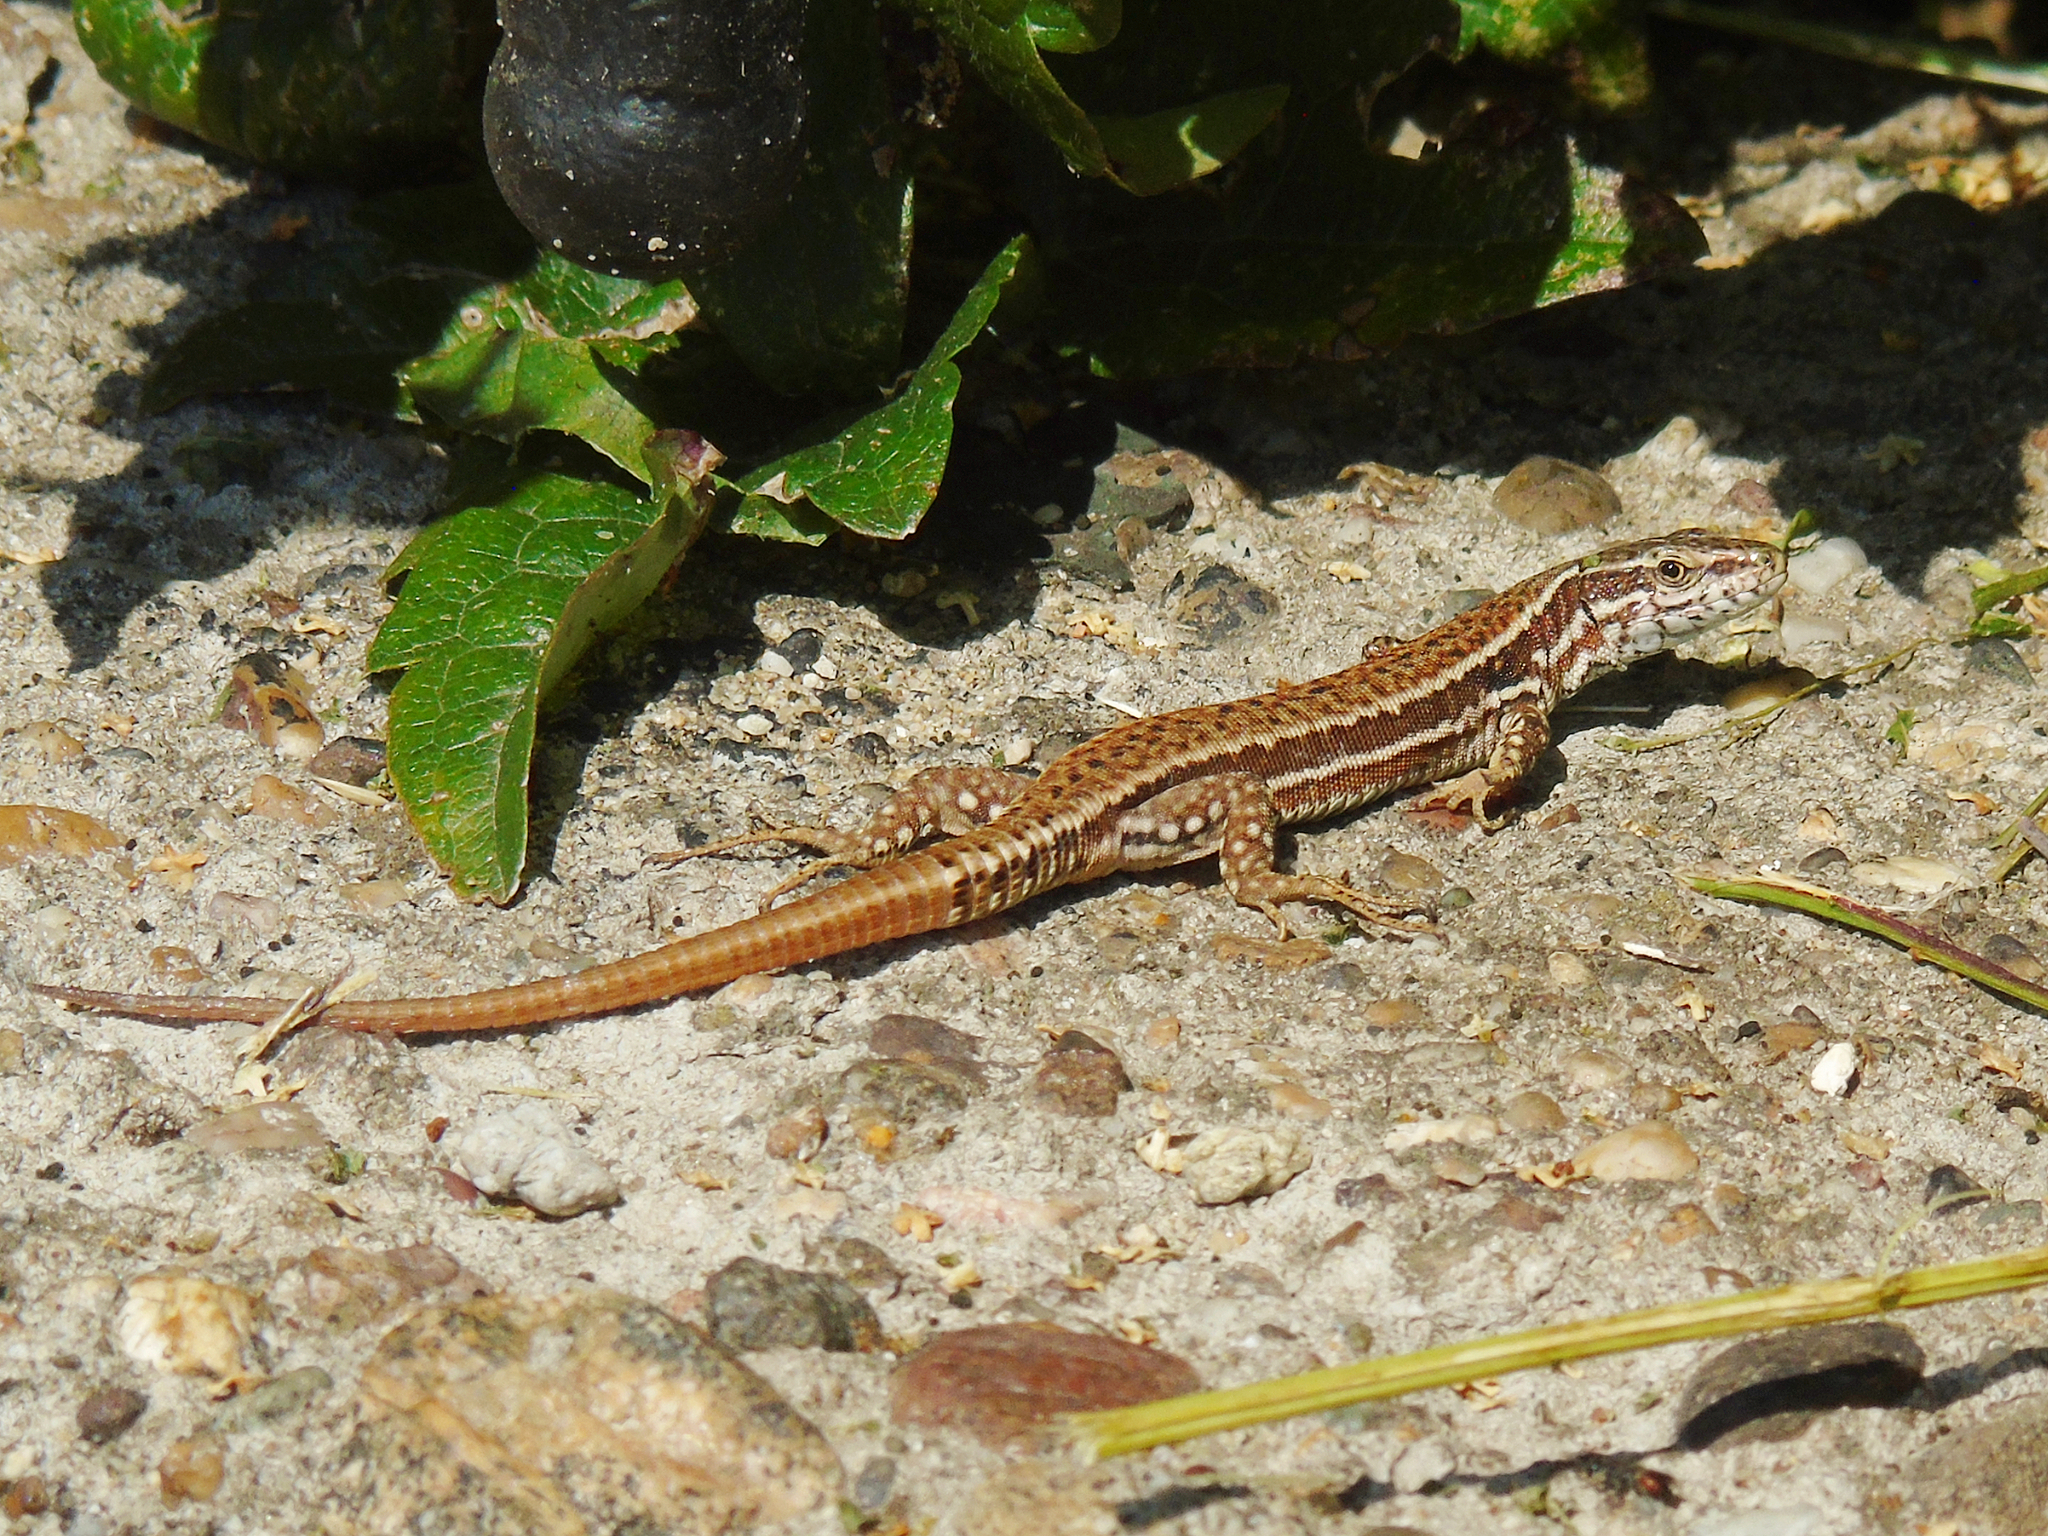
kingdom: Animalia
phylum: Chordata
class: Squamata
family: Lacertidae
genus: Podarcis
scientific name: Podarcis muralis
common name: Common wall lizard
